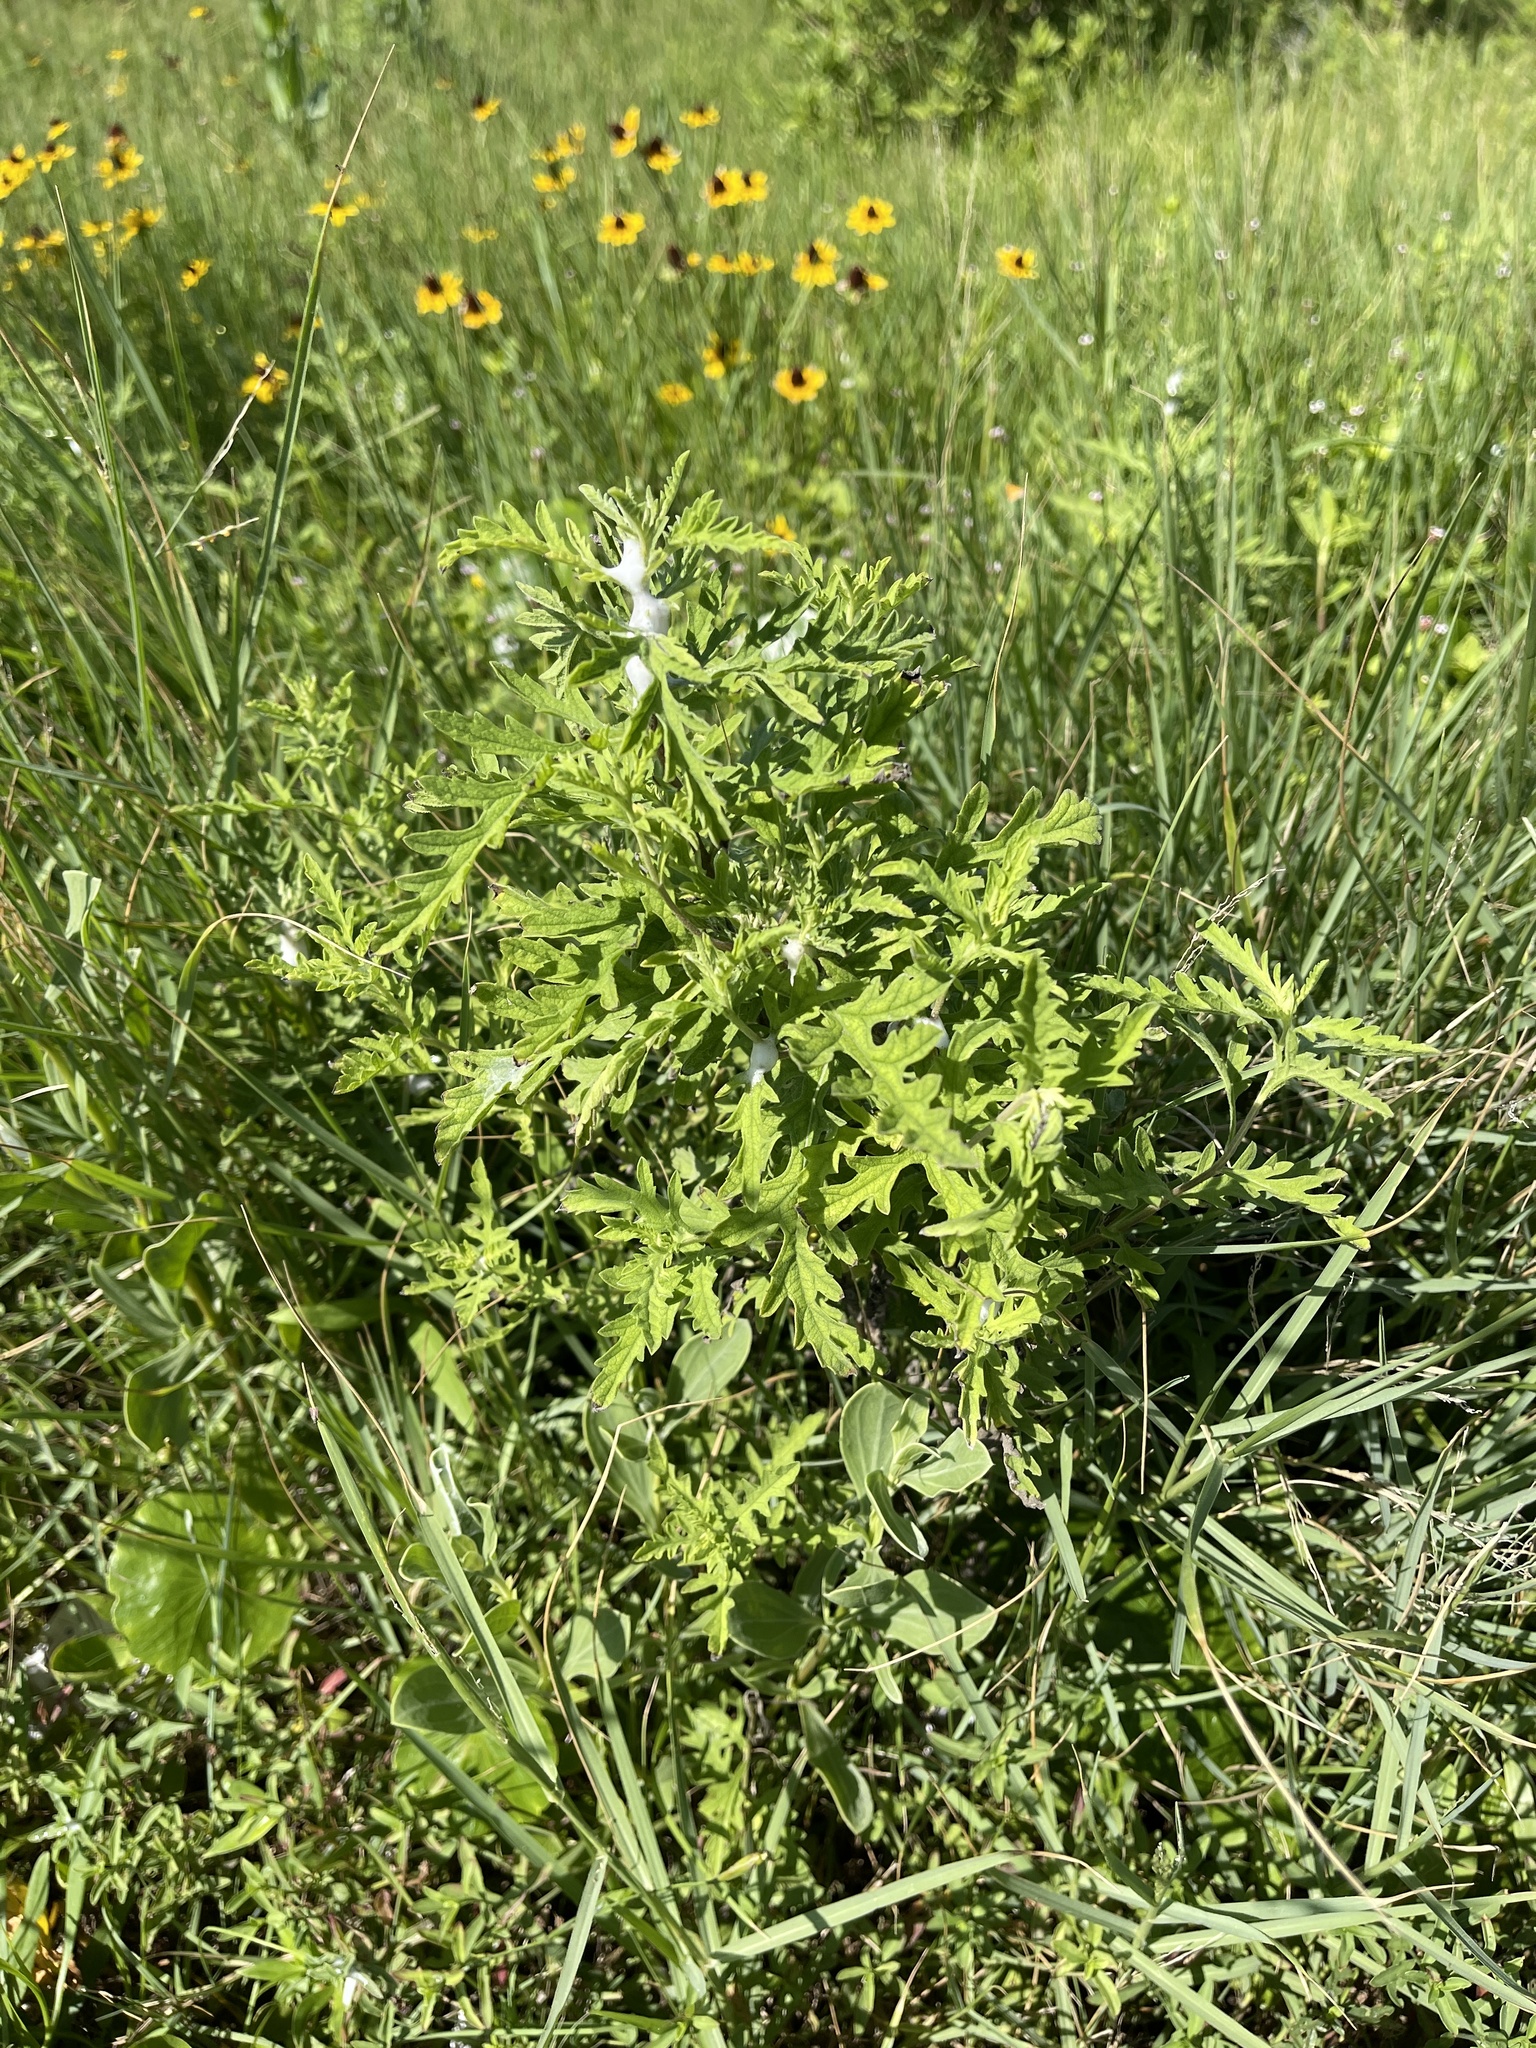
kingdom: Plantae
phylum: Tracheophyta
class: Magnoliopsida
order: Asterales
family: Asteraceae
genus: Ambrosia
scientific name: Ambrosia psilostachya
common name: Perennial ragweed
